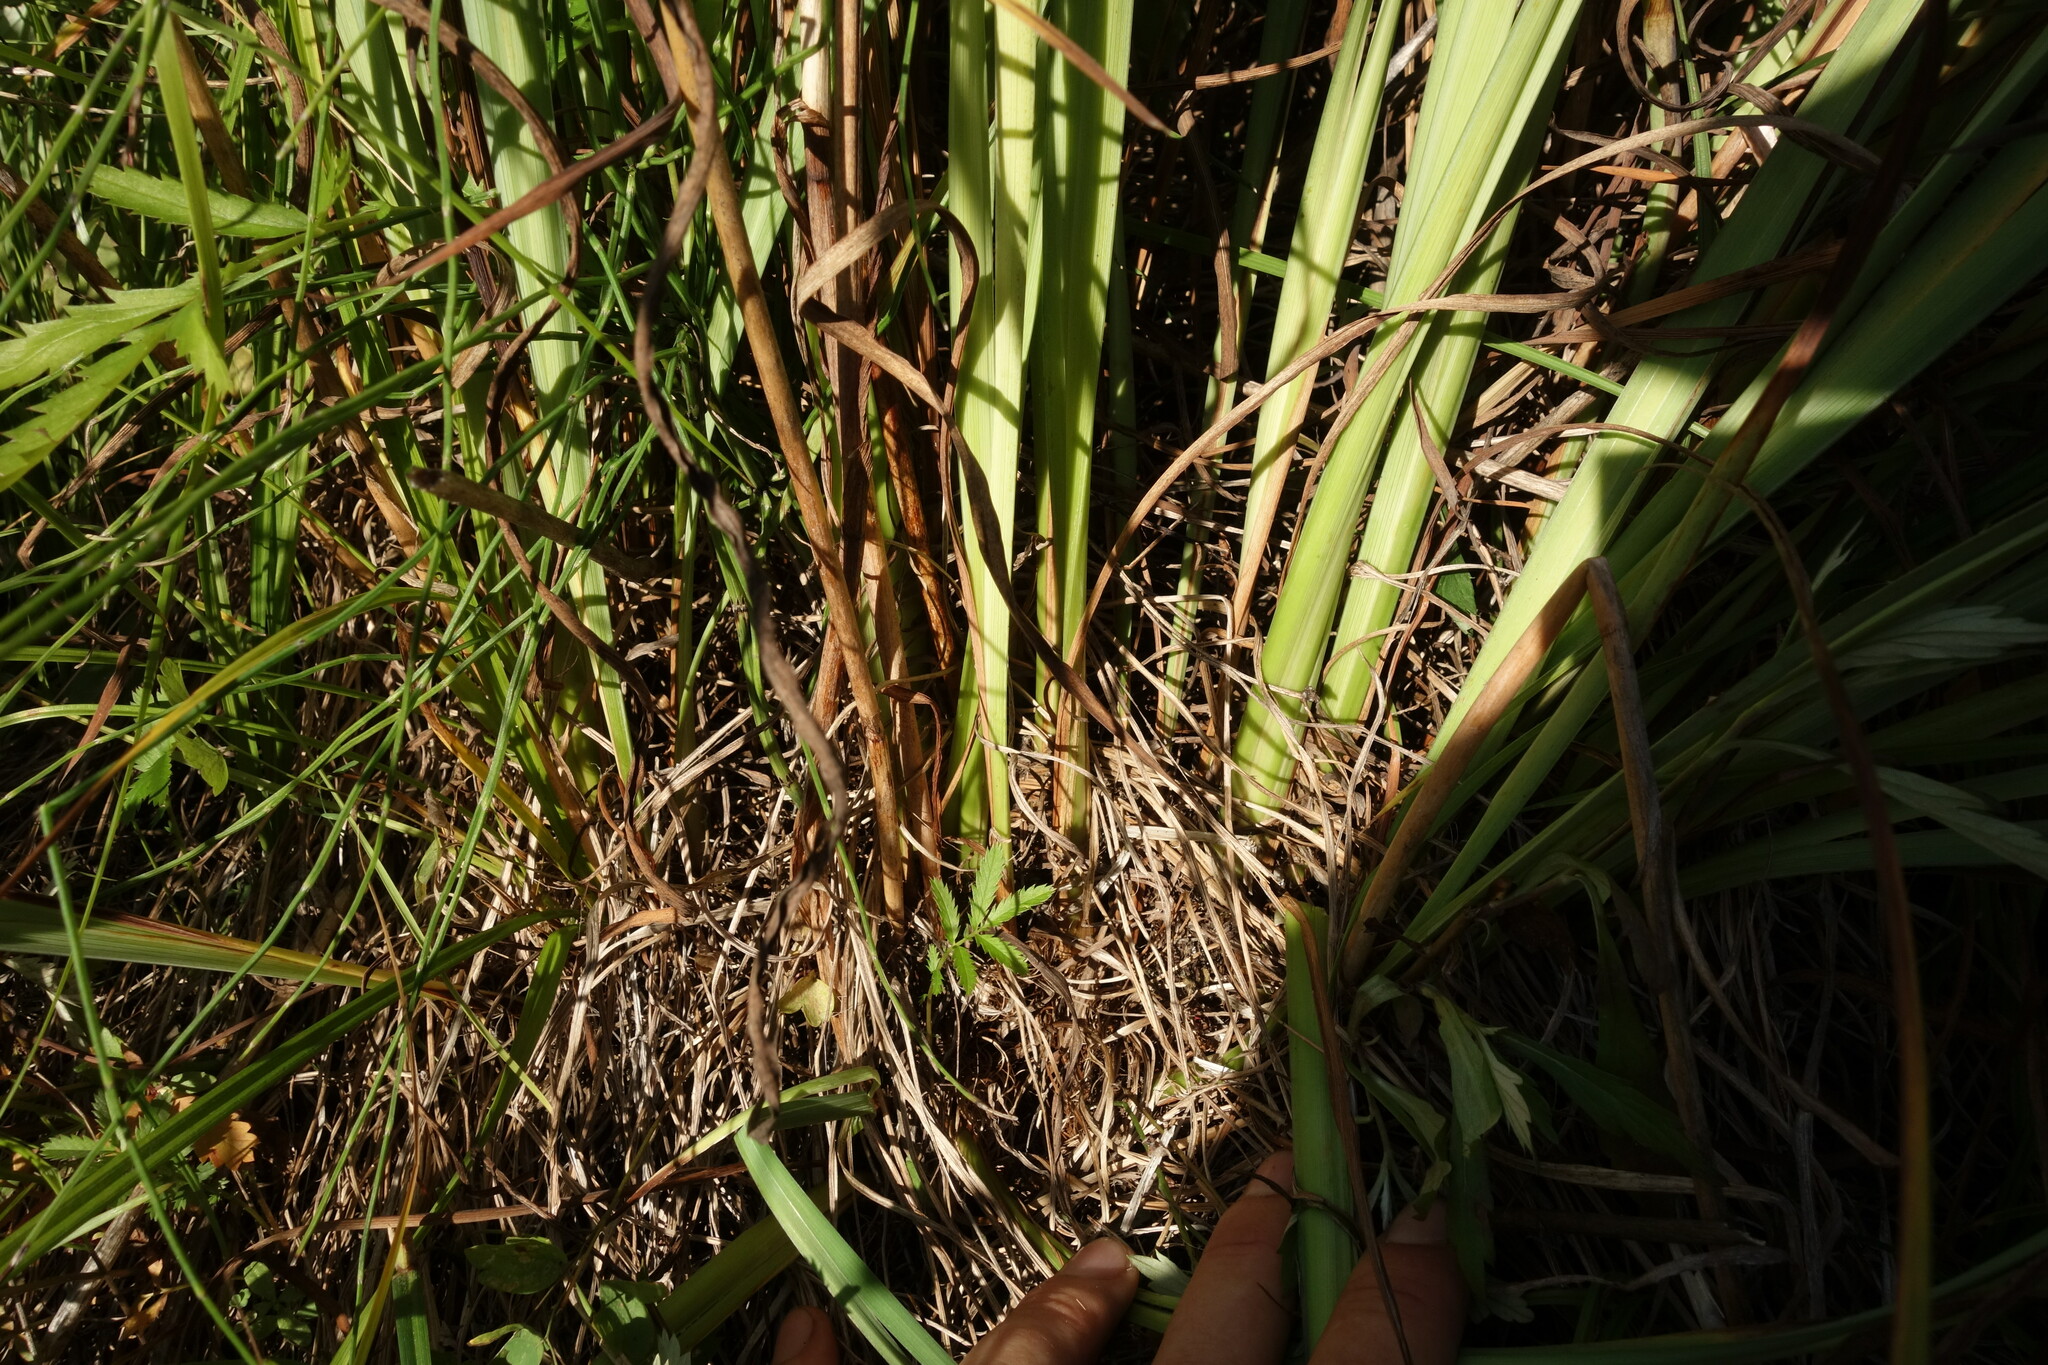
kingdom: Plantae
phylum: Tracheophyta
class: Liliopsida
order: Asparagales
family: Iridaceae
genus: Iris
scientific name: Iris sanguinea
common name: Blood iris
